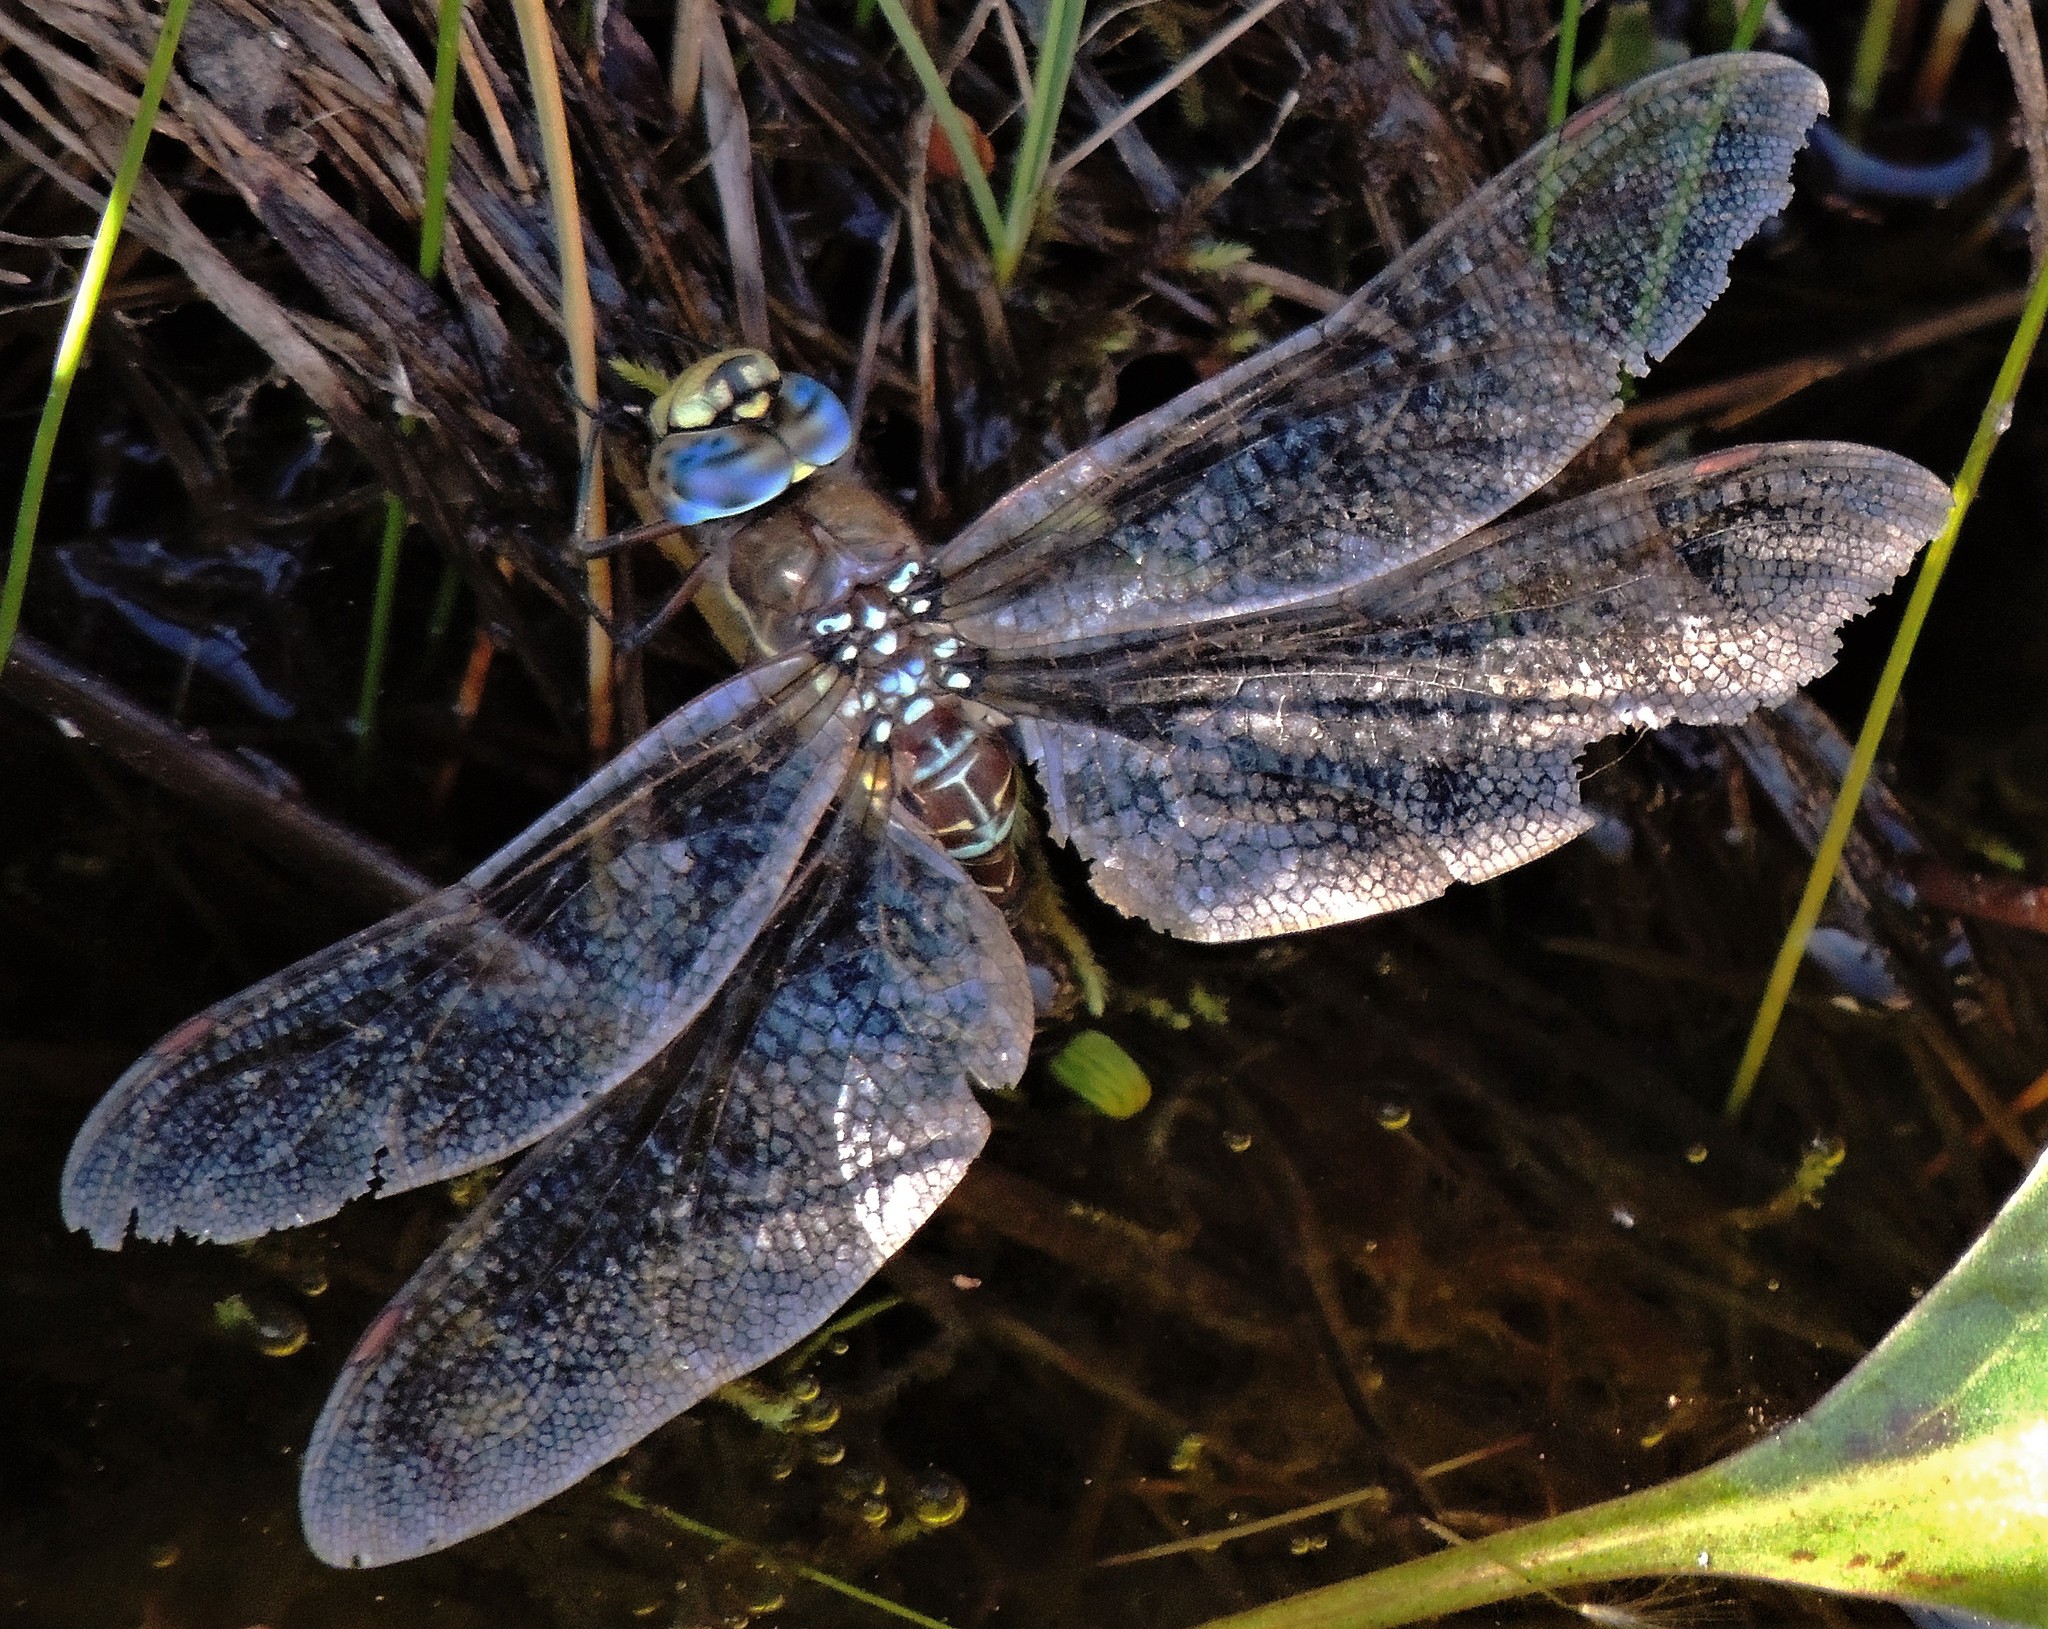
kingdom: Animalia
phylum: Arthropoda
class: Insecta
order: Odonata
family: Aeshnidae
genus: Rhionaeschna
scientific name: Rhionaeschna variegata
